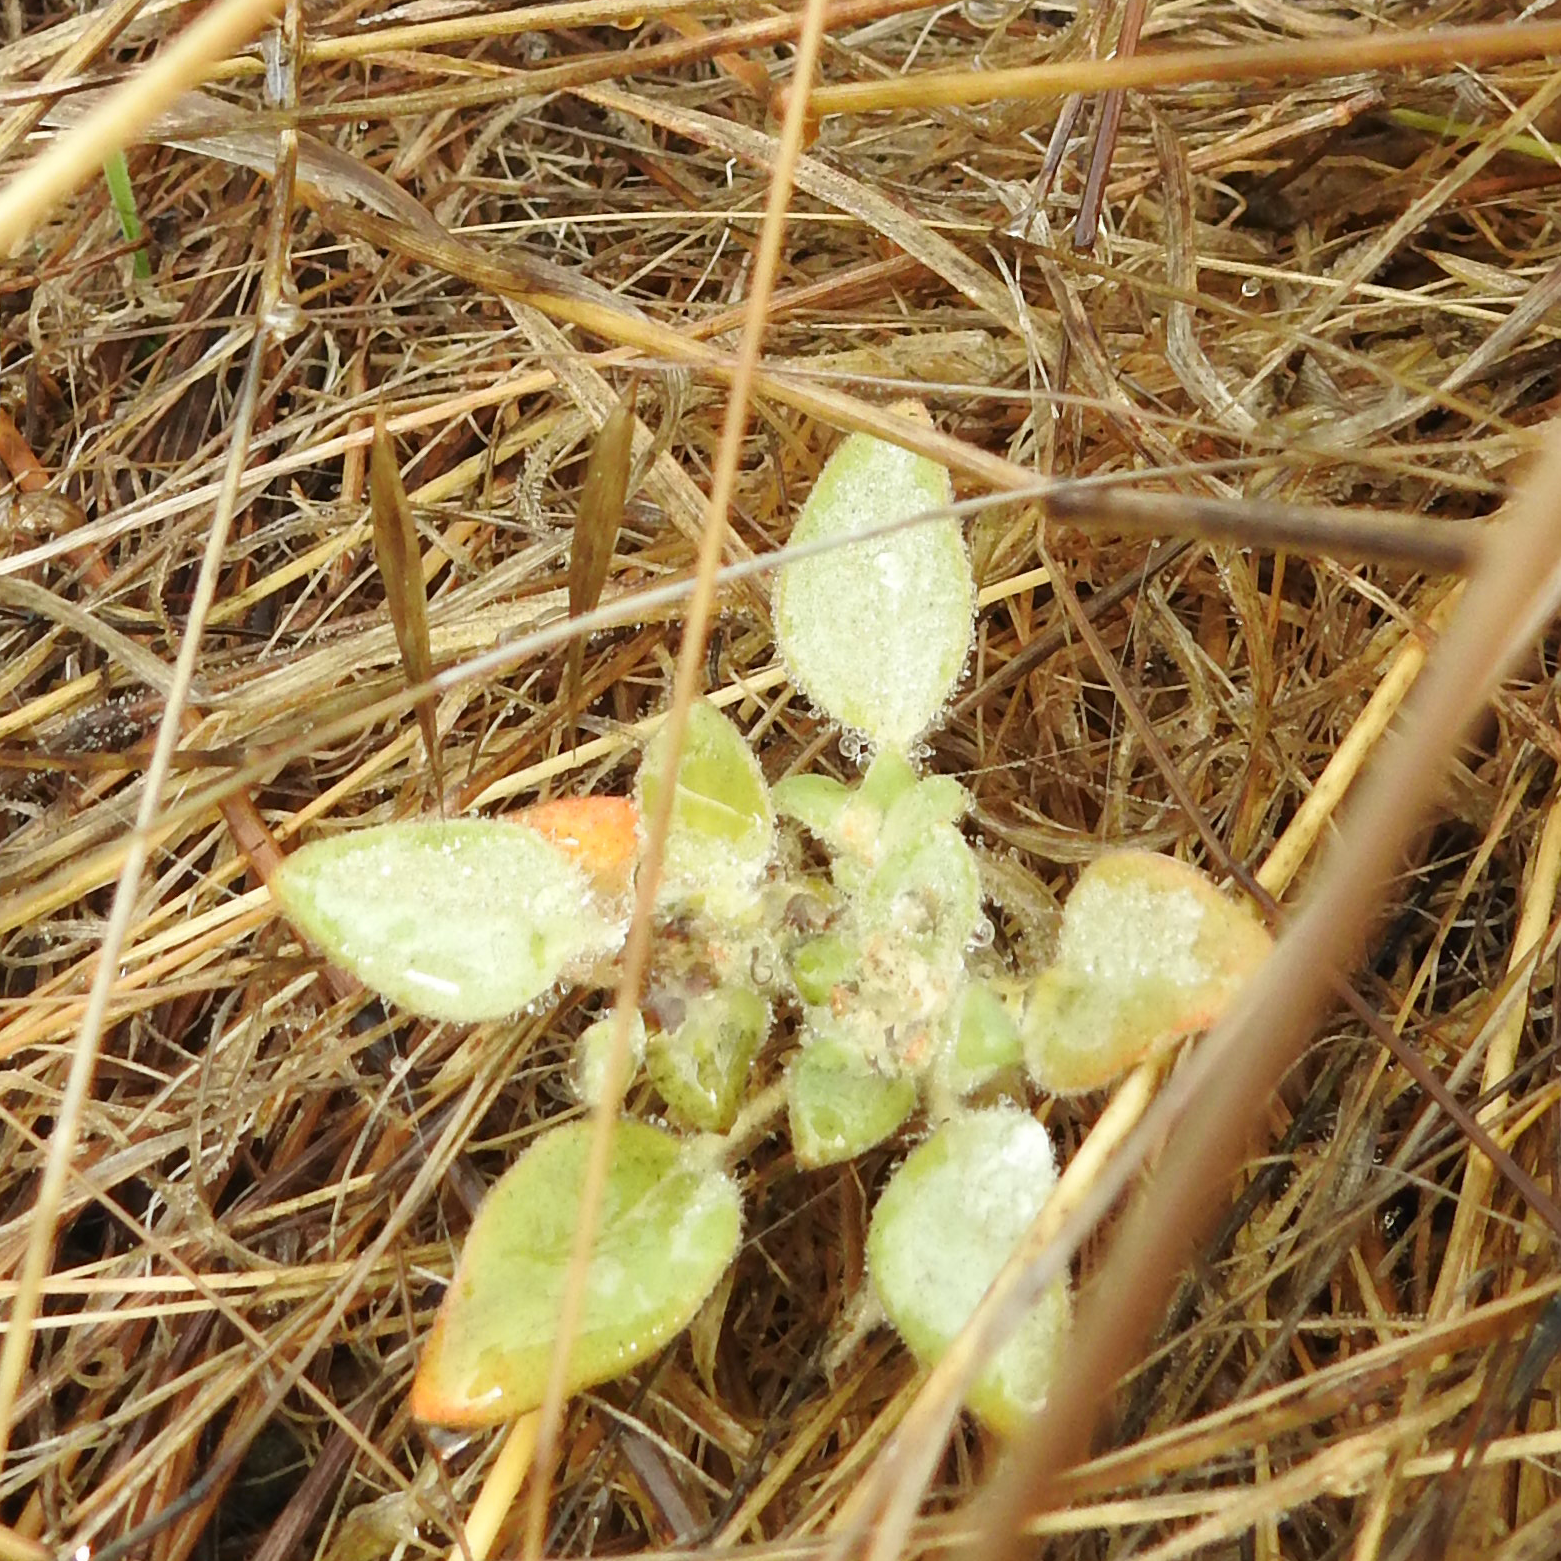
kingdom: Plantae
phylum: Tracheophyta
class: Magnoliopsida
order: Malpighiales
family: Euphorbiaceae
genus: Croton
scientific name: Croton setiger
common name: Dove weed
